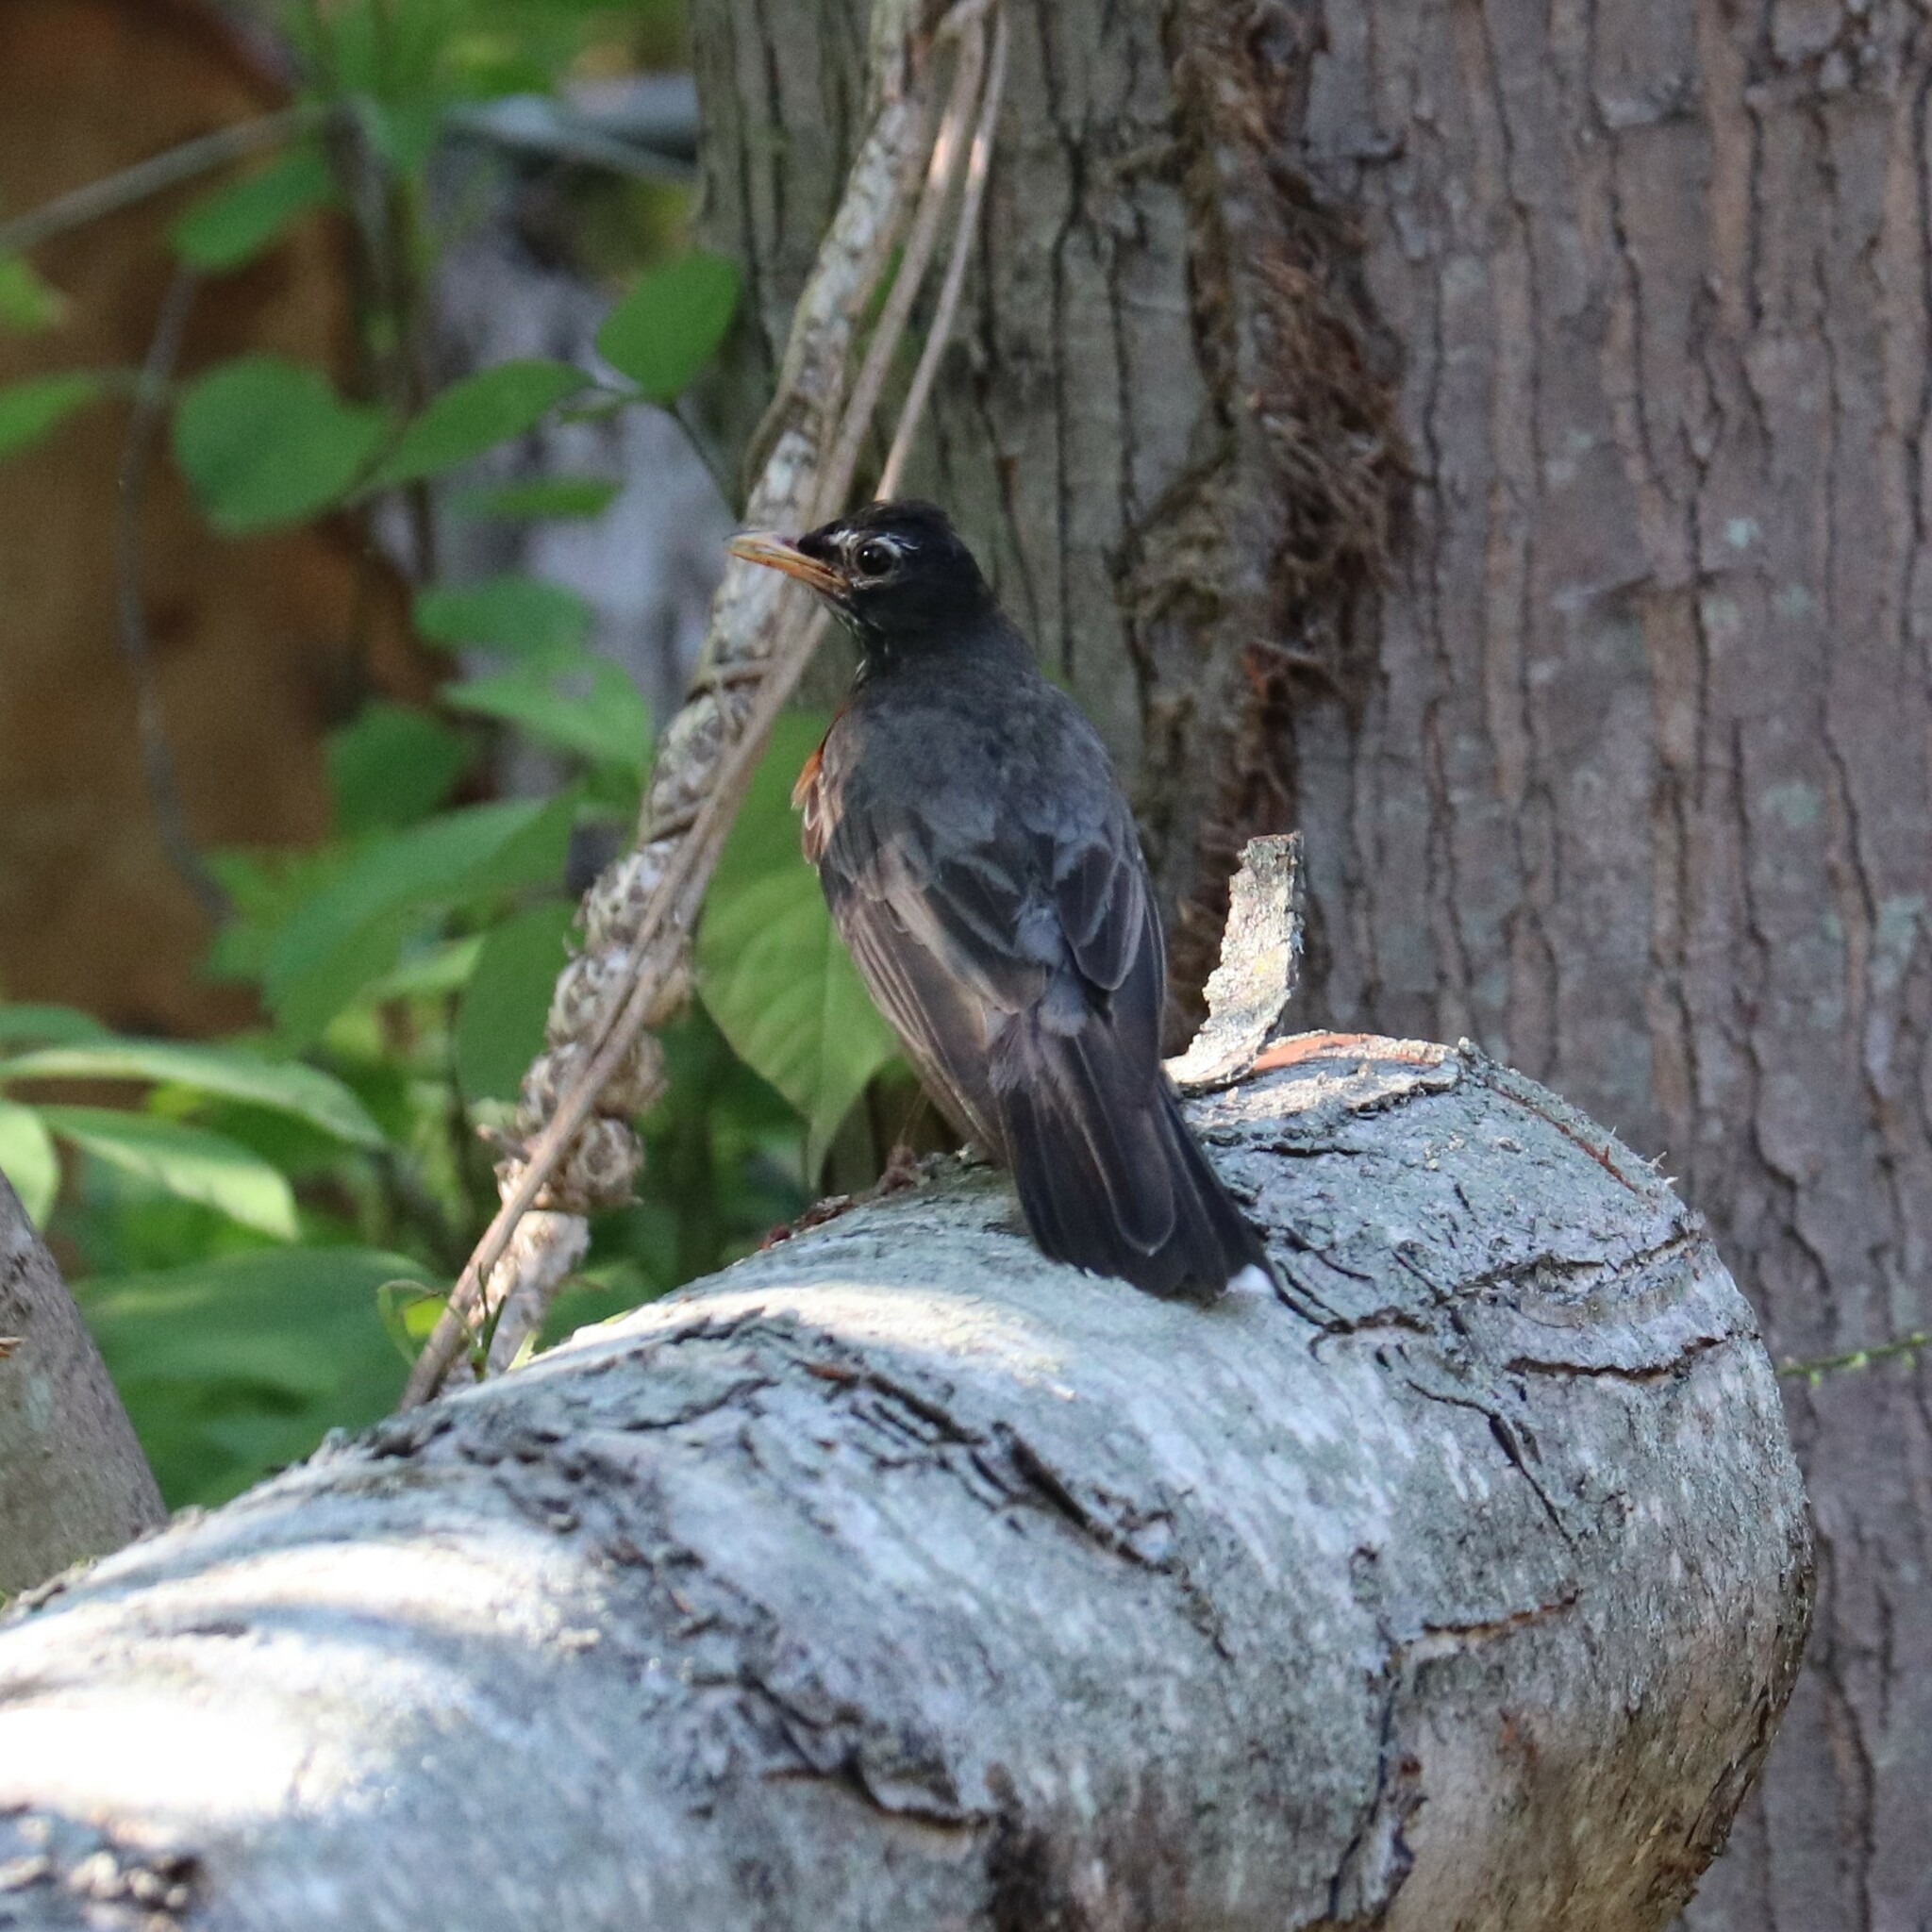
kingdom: Animalia
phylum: Chordata
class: Aves
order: Passeriformes
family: Turdidae
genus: Turdus
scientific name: Turdus migratorius
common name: American robin
